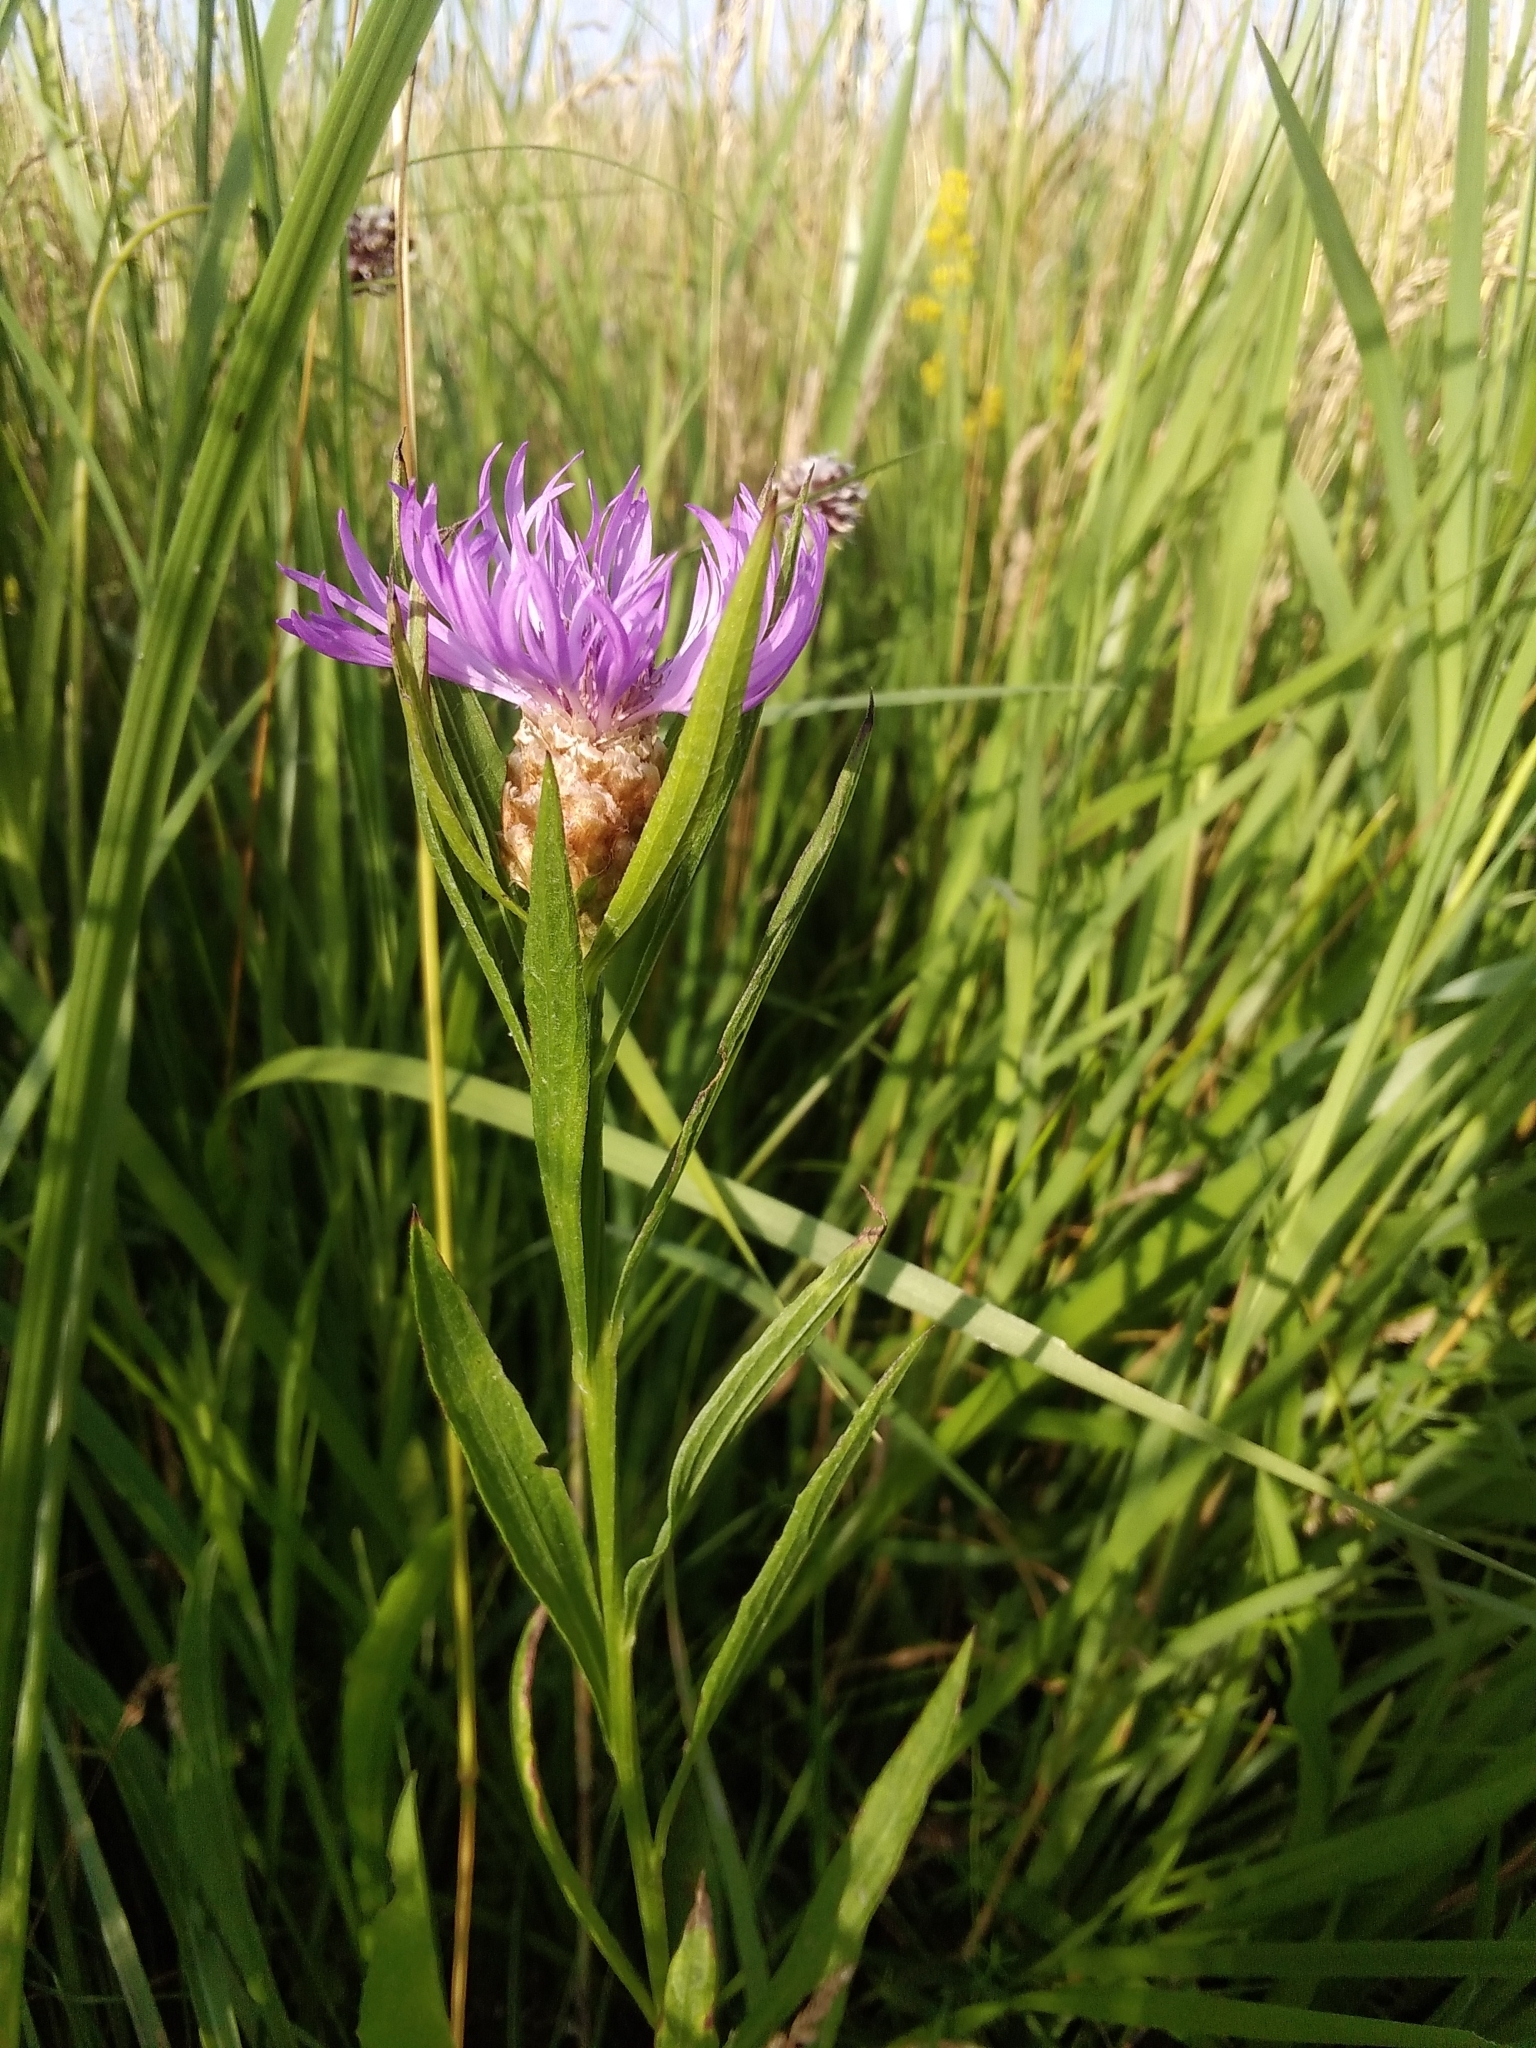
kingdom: Plantae
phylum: Tracheophyta
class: Magnoliopsida
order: Asterales
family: Asteraceae
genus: Centaurea
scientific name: Centaurea jacea
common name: Brown knapweed
